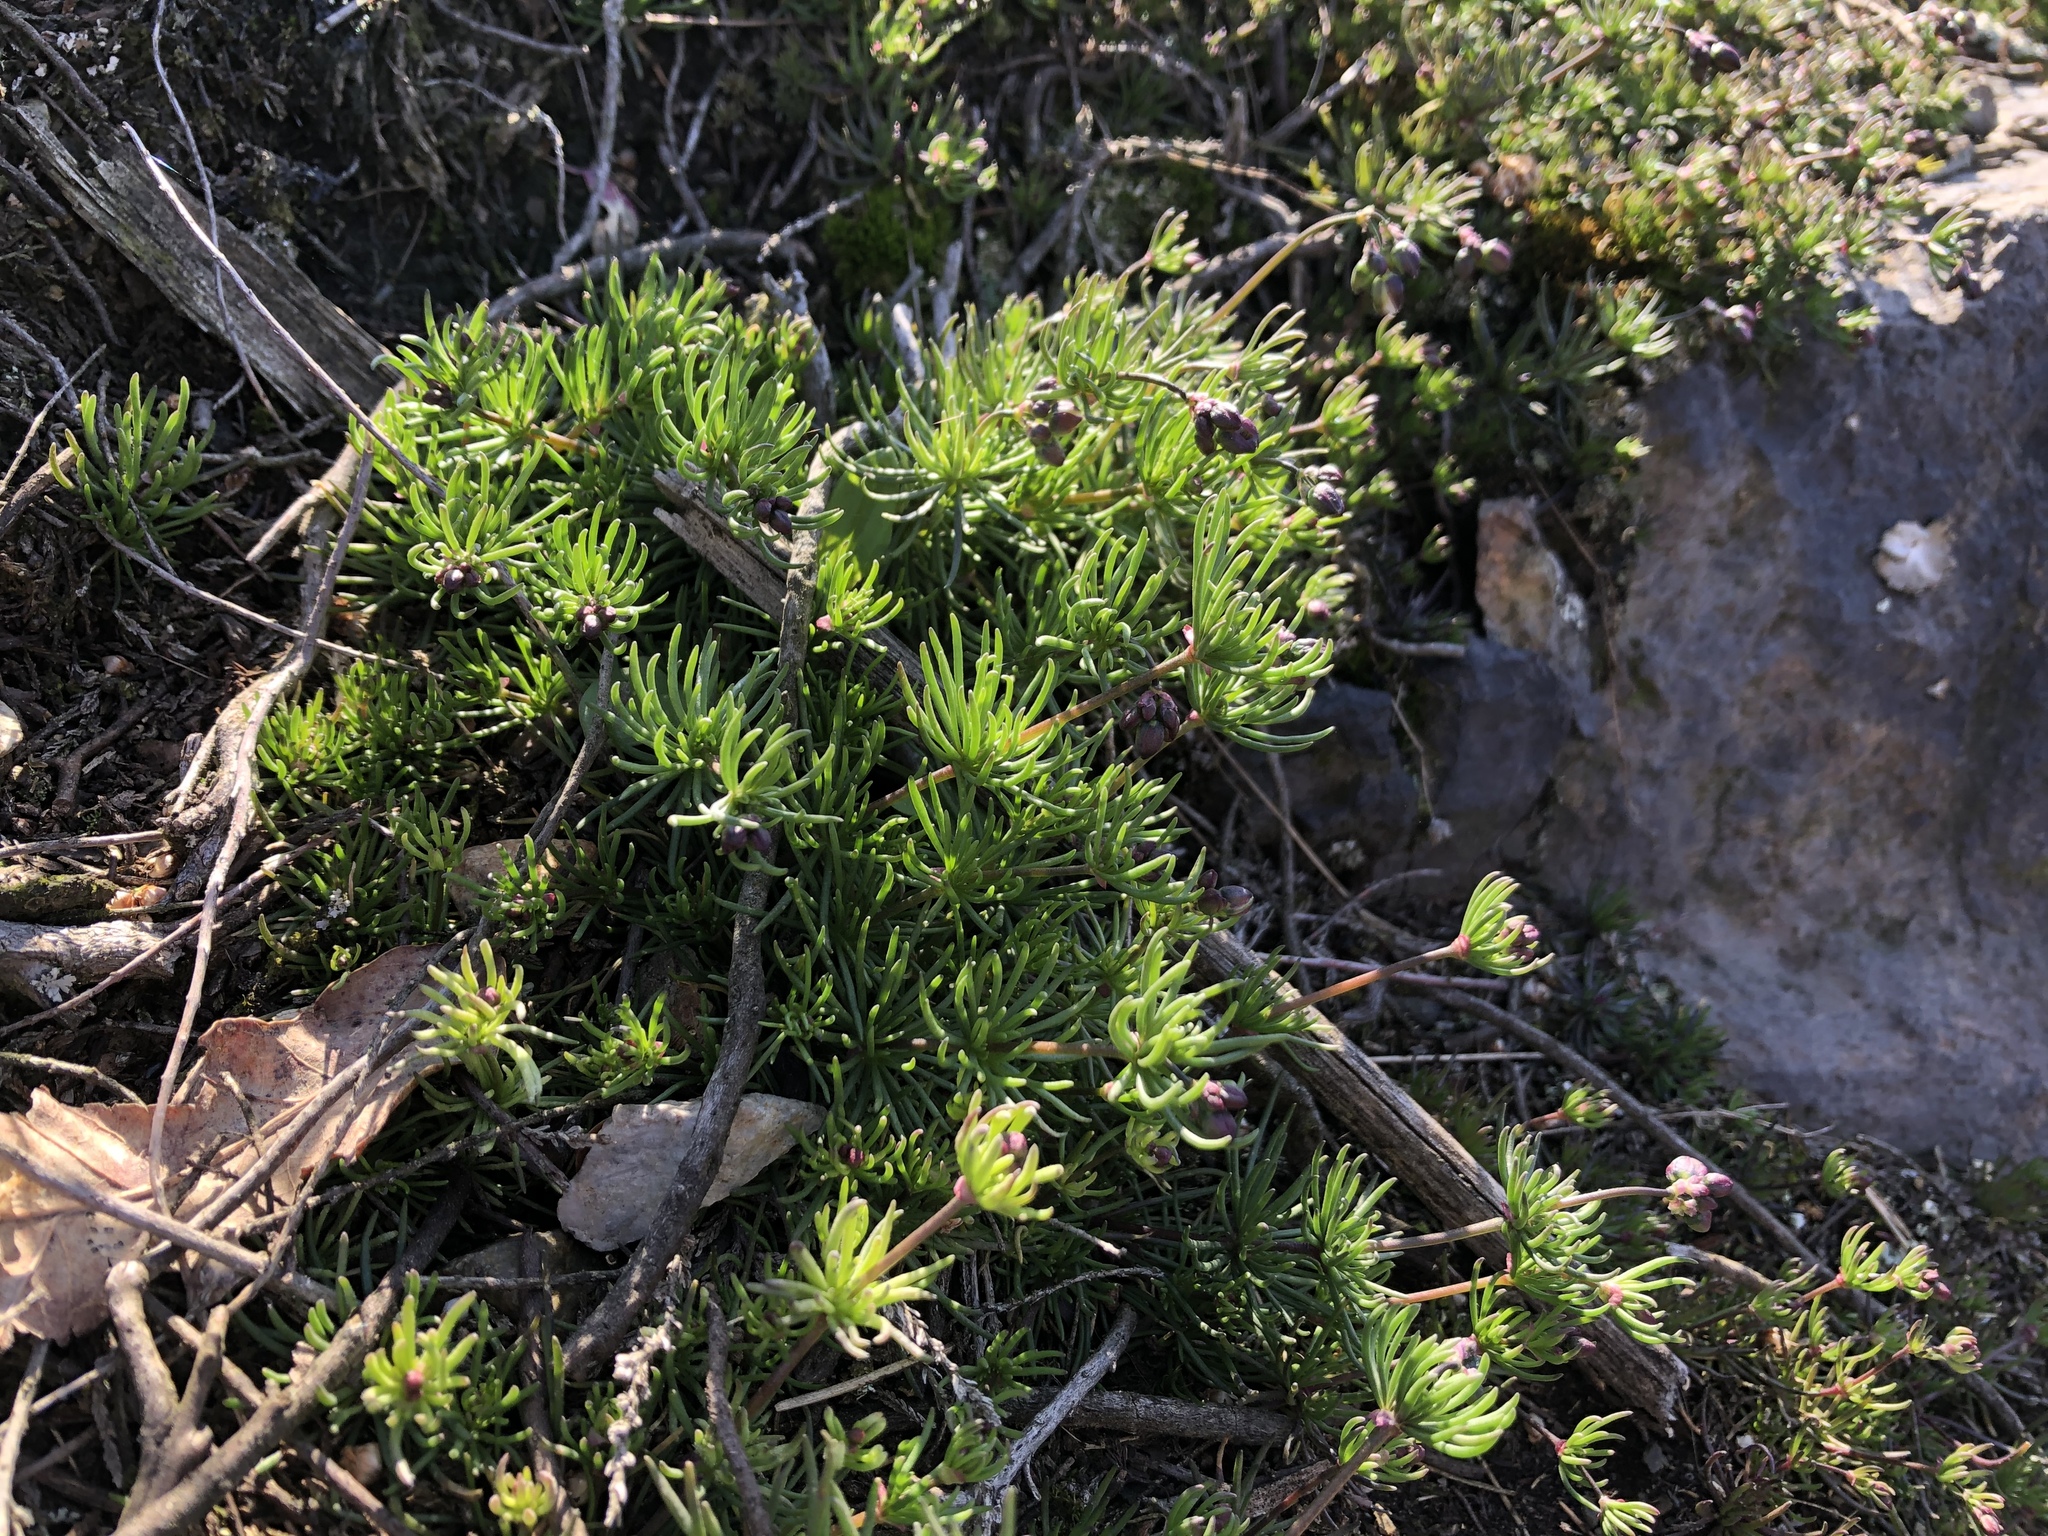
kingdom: Plantae
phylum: Tracheophyta
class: Magnoliopsida
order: Caryophyllales
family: Caryophyllaceae
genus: Spergula
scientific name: Spergula morisonii
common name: Pearlwort spurrey
